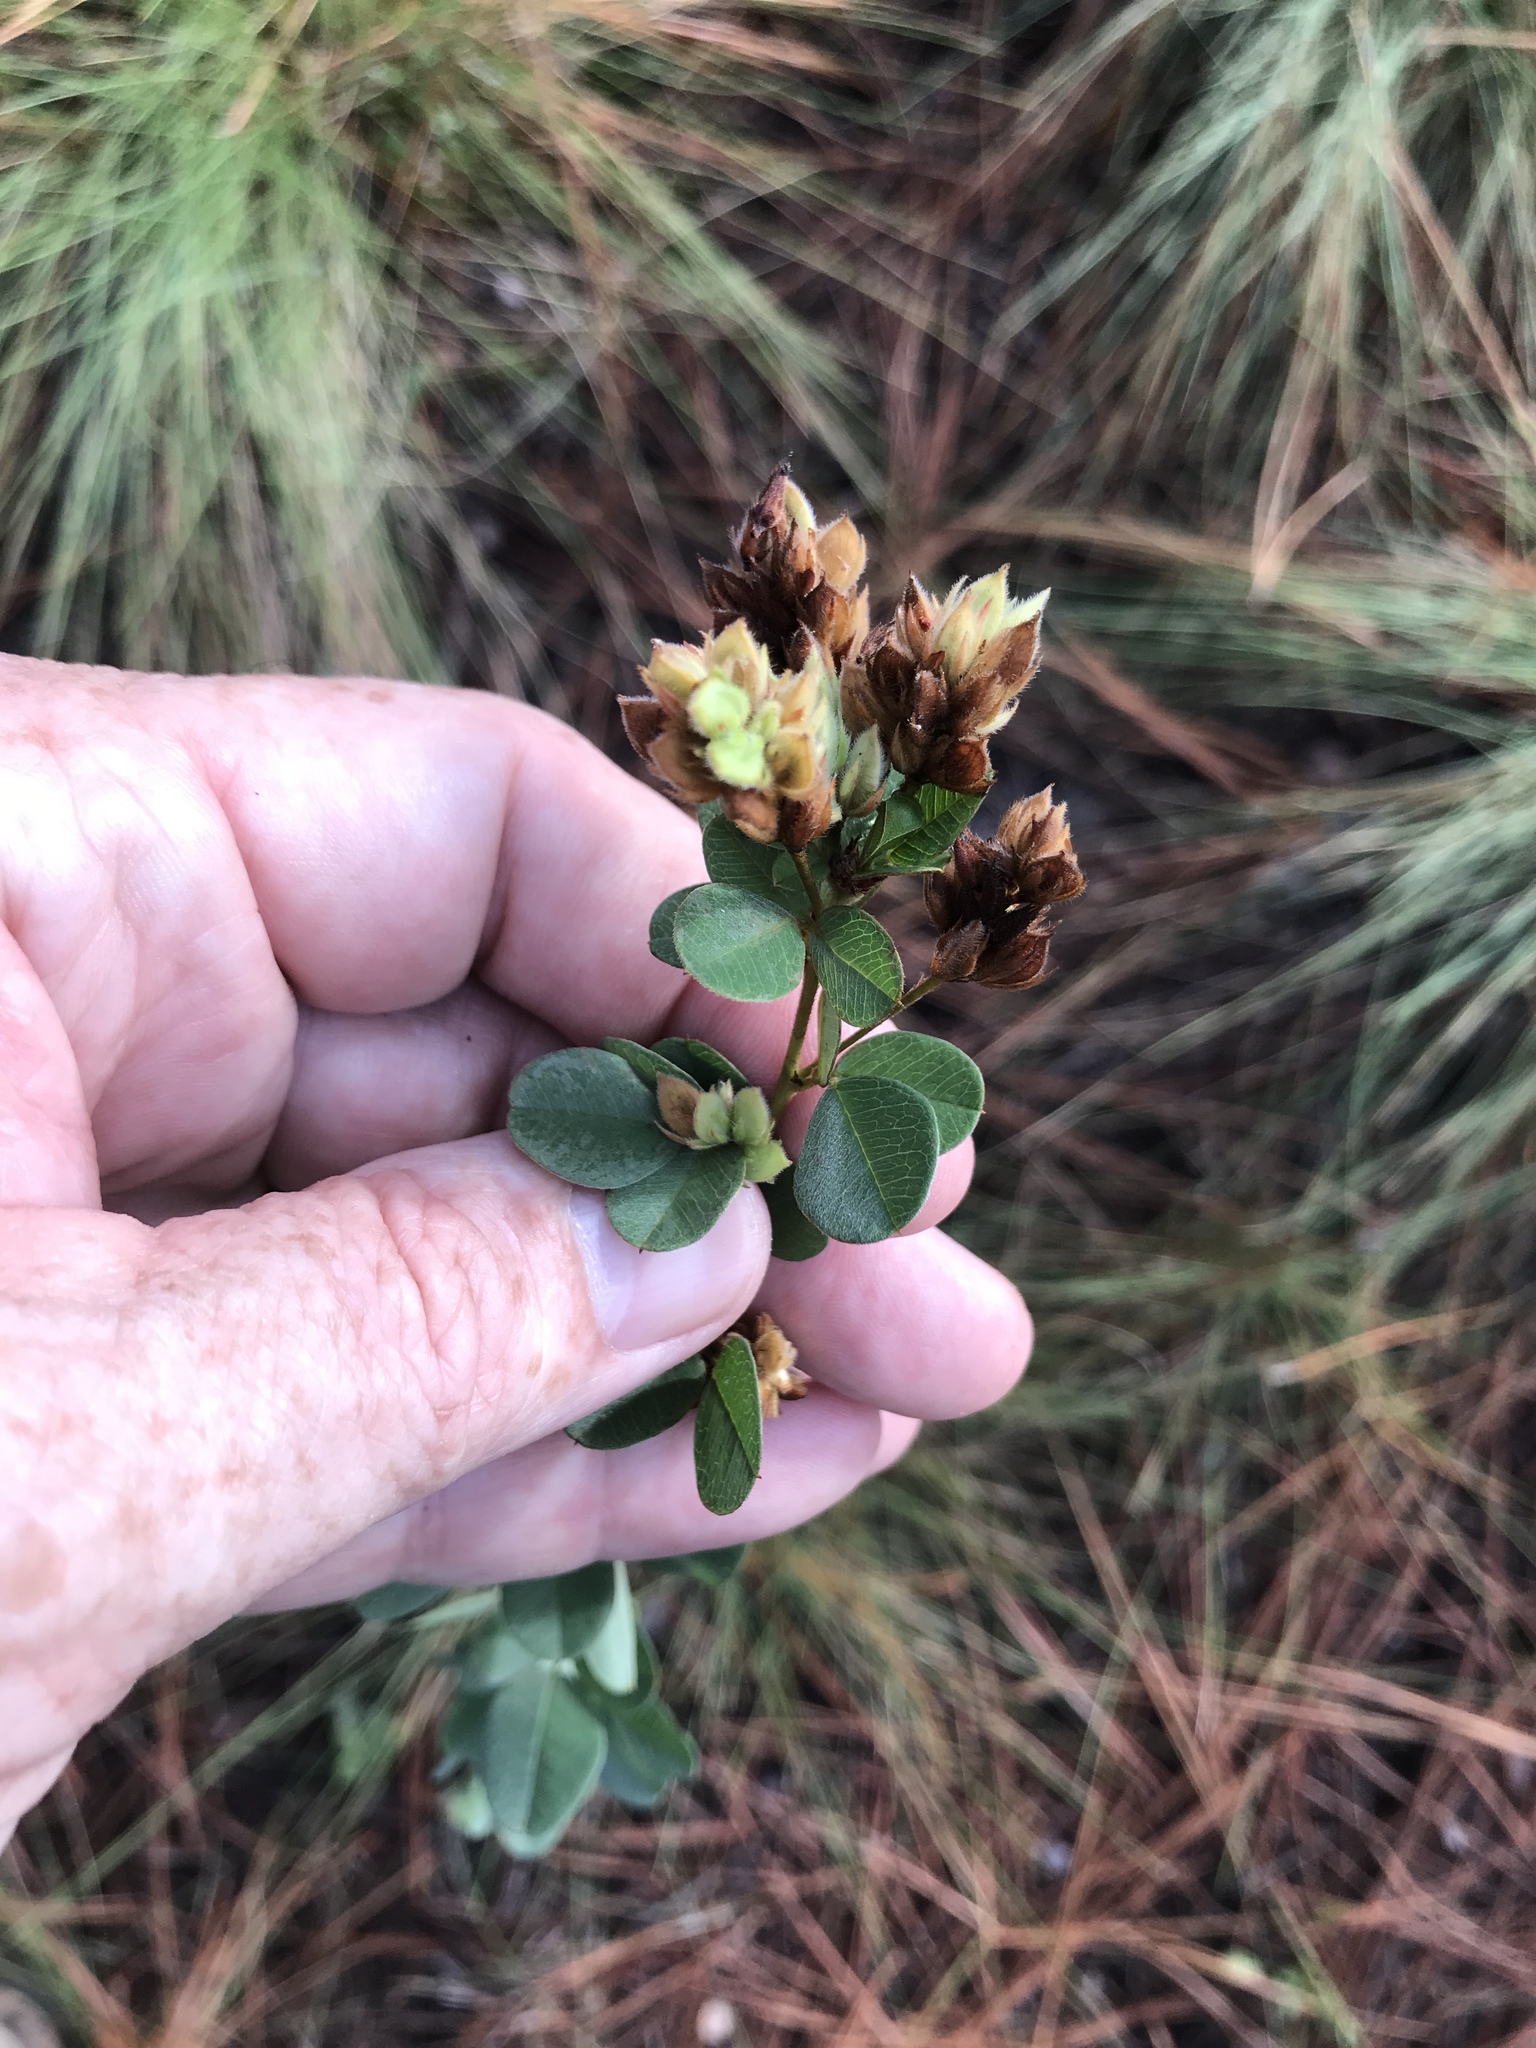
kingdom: Plantae
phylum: Tracheophyta
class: Magnoliopsida
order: Fabales
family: Fabaceae
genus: Lespedeza
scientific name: Lespedeza hirta
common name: Hairy lespedeza
